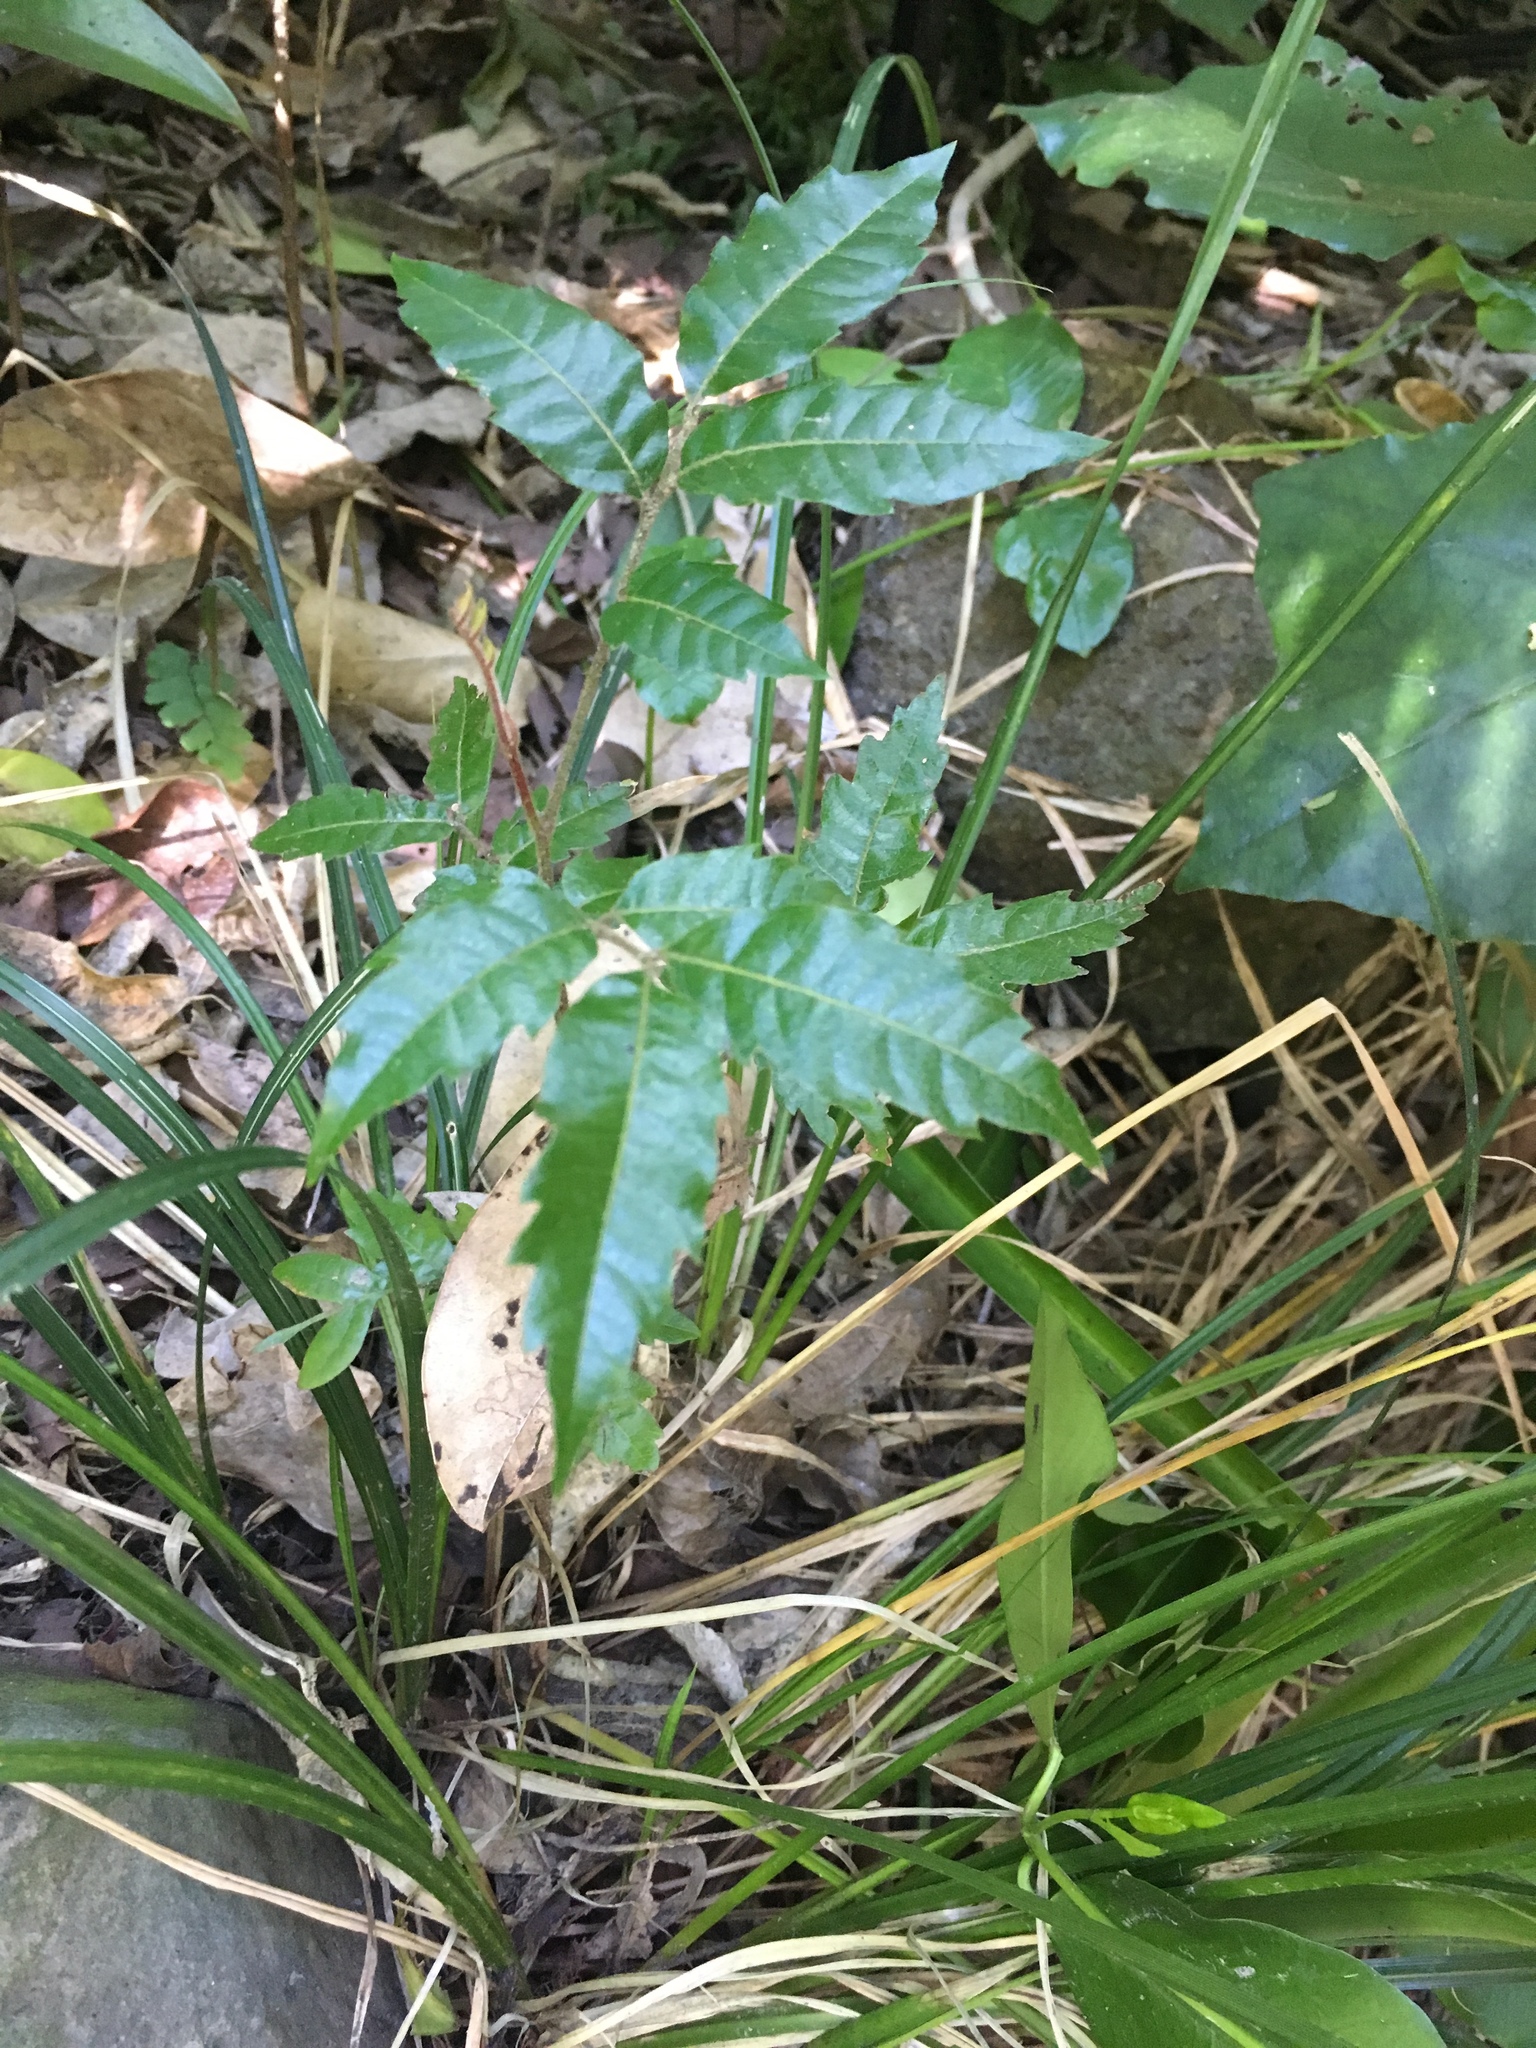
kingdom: Plantae
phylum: Tracheophyta
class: Magnoliopsida
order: Sapindales
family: Sapindaceae
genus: Alectryon
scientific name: Alectryon excelsus
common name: Three kings titoki
